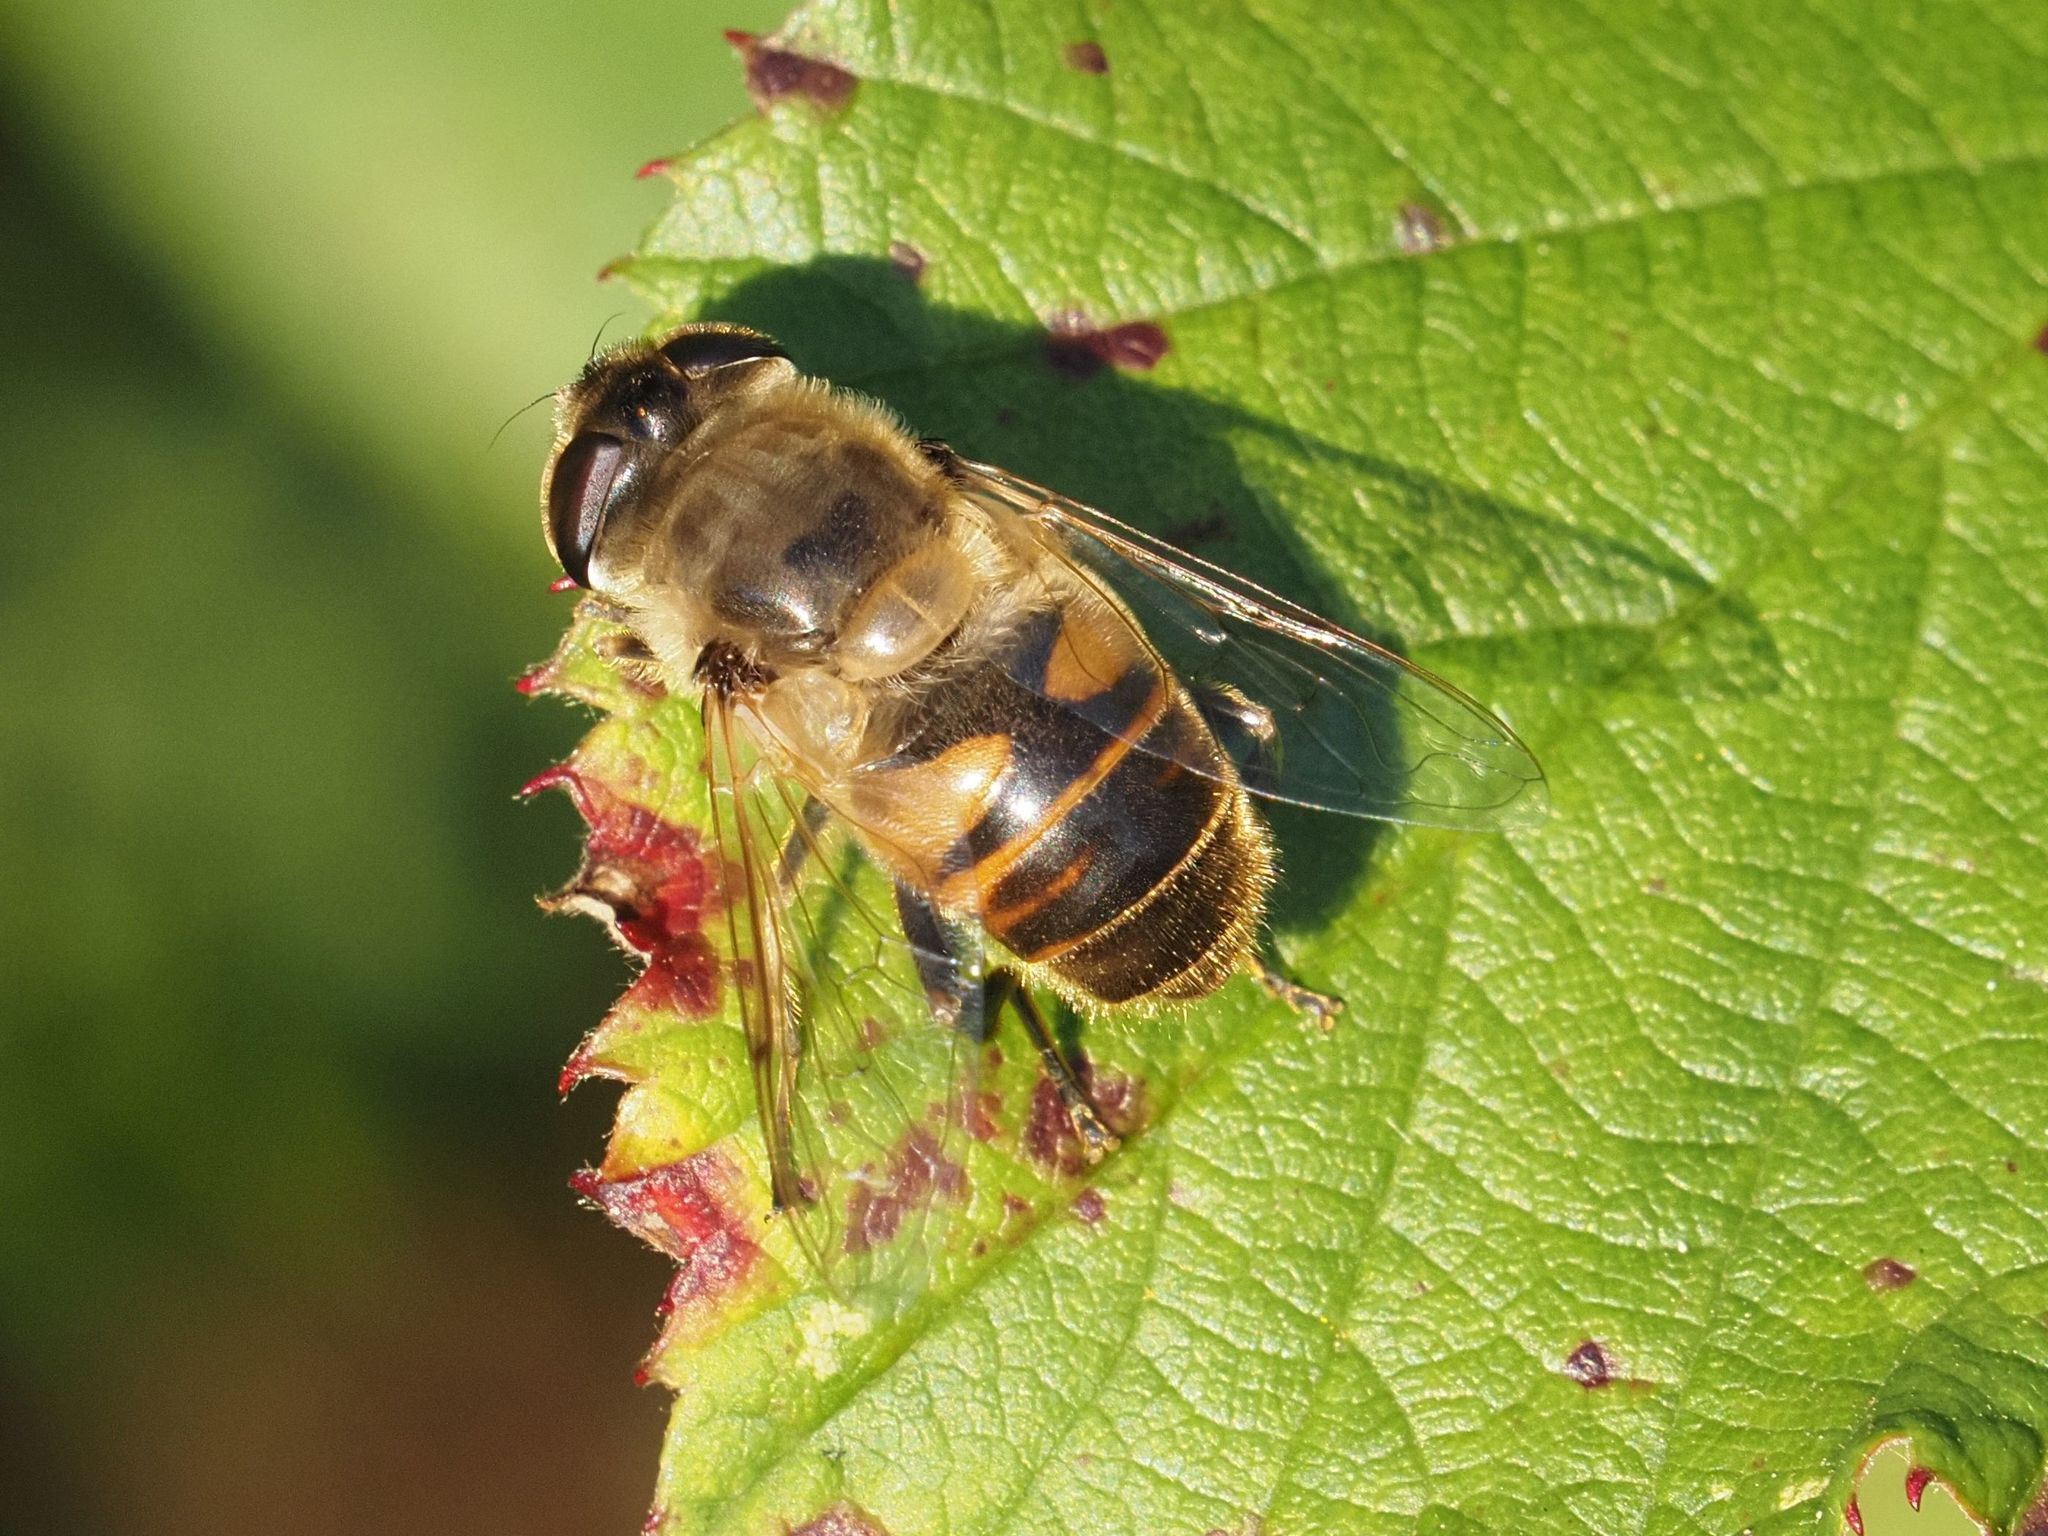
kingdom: Animalia
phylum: Arthropoda
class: Insecta
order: Diptera
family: Syrphidae
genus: Eristalis
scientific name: Eristalis tenax
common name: Drone fly
